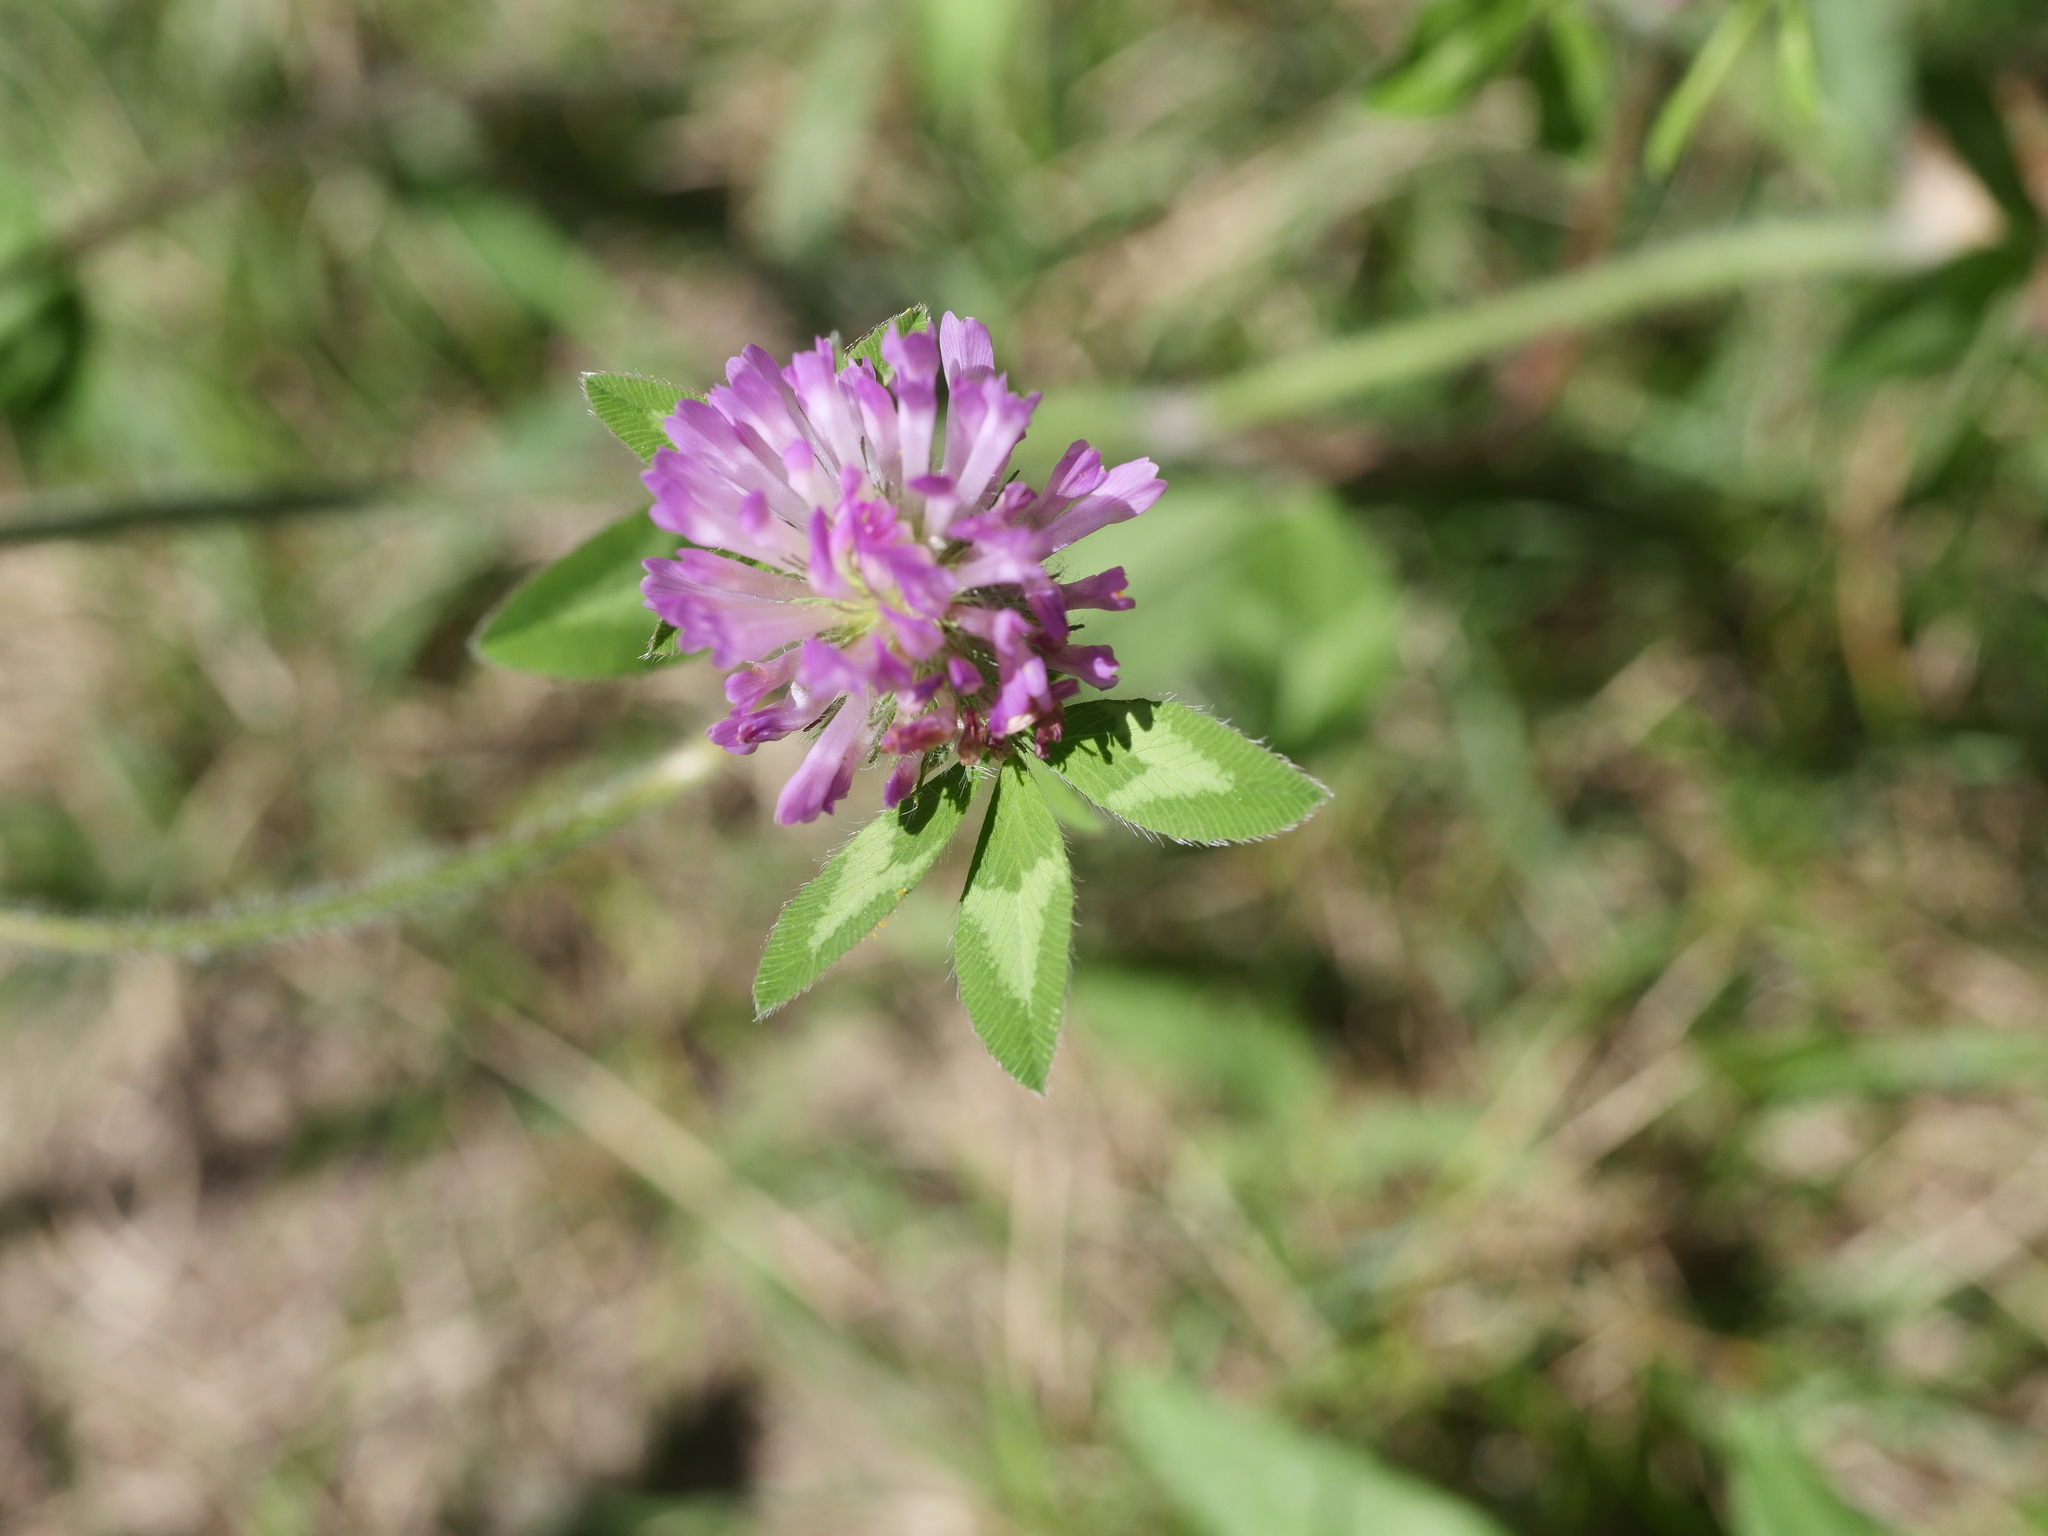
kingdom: Plantae
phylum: Tracheophyta
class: Magnoliopsida
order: Fabales
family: Fabaceae
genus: Trifolium
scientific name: Trifolium pratense
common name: Red clover
